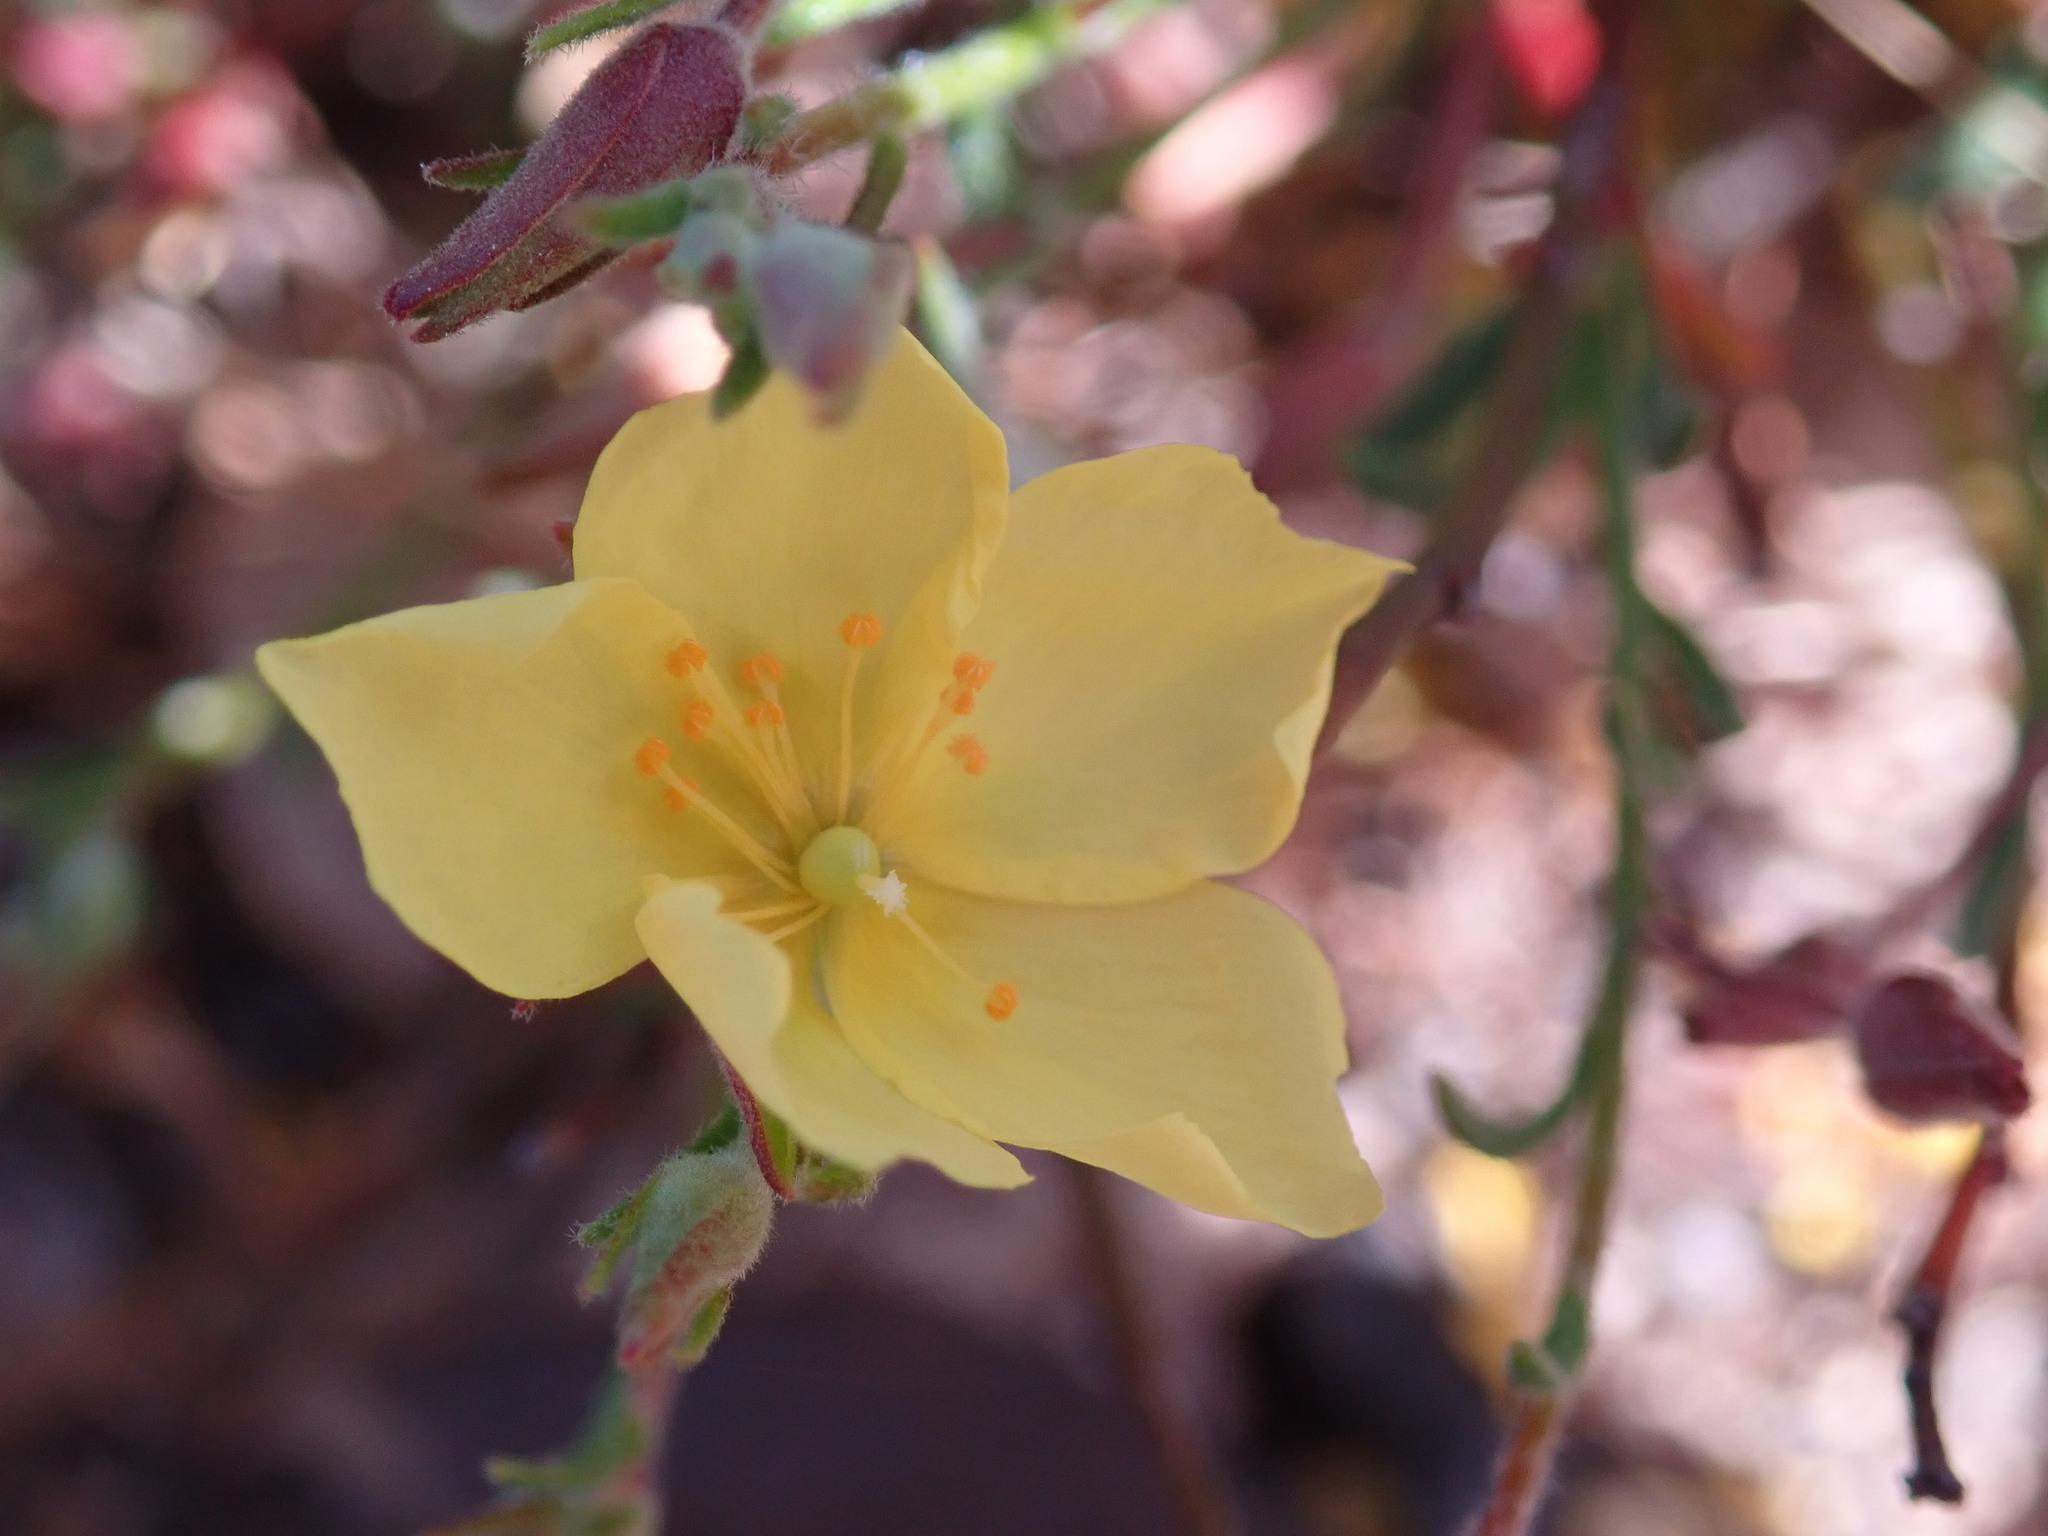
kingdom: Plantae
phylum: Tracheophyta
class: Magnoliopsida
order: Malvales
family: Cistaceae
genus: Crocanthemum
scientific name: Crocanthemum scoparium
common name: Broom-rose
